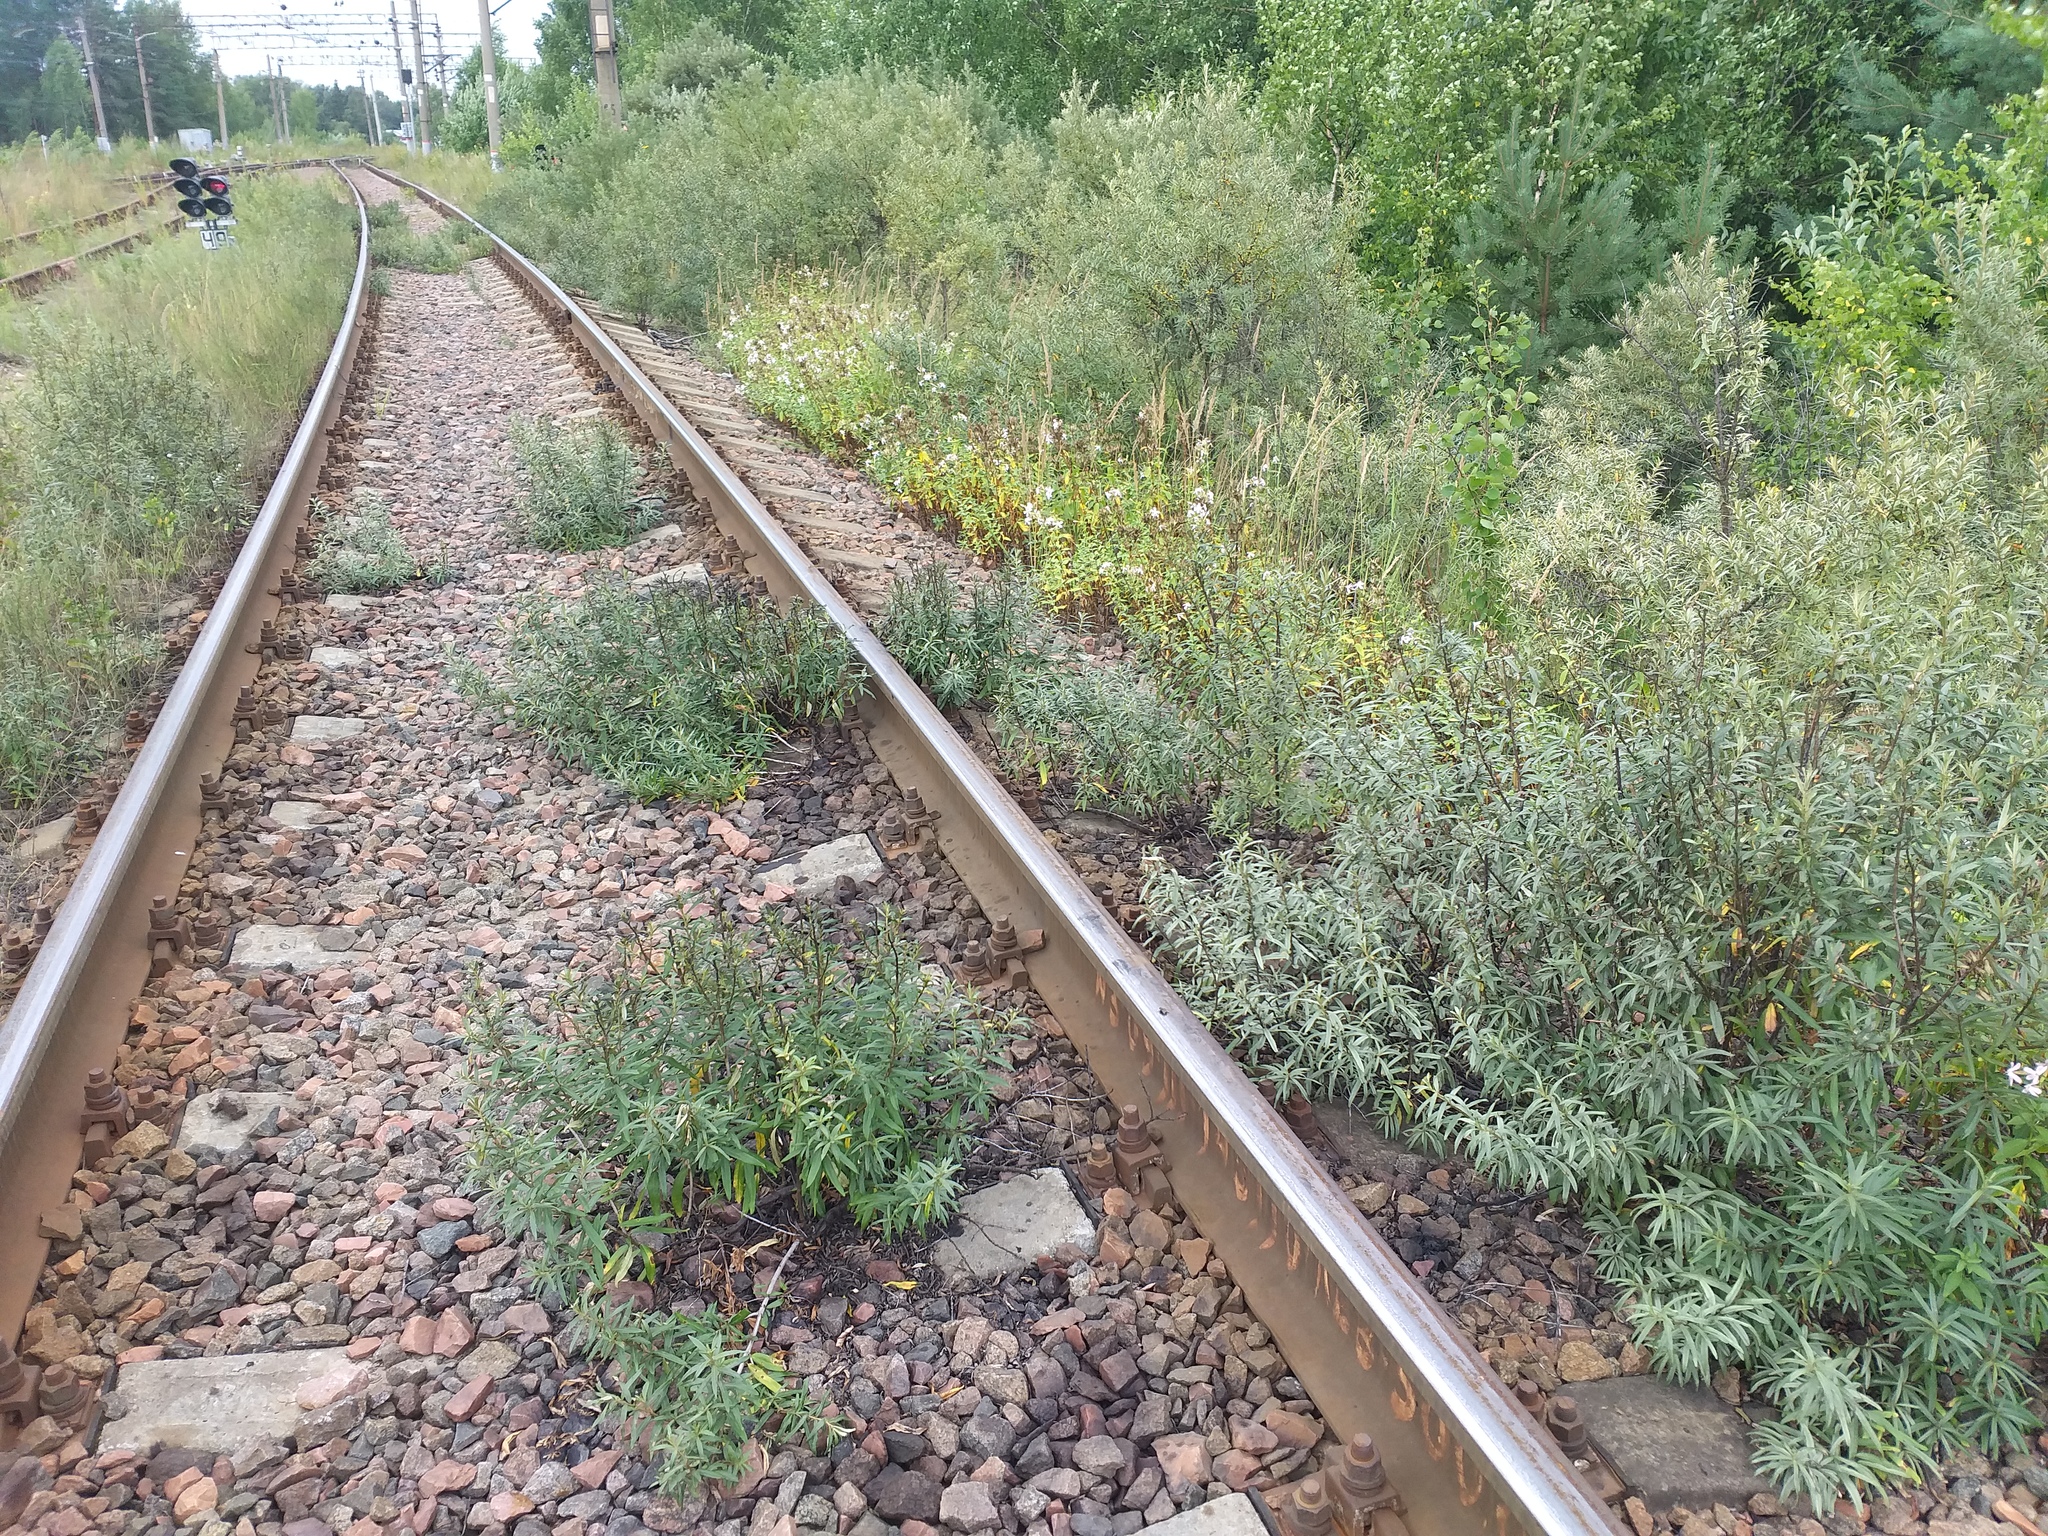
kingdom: Plantae
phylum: Tracheophyta
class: Magnoliopsida
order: Rosales
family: Elaeagnaceae
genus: Hippophae
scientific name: Hippophae rhamnoides
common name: Sea-buckthorn
